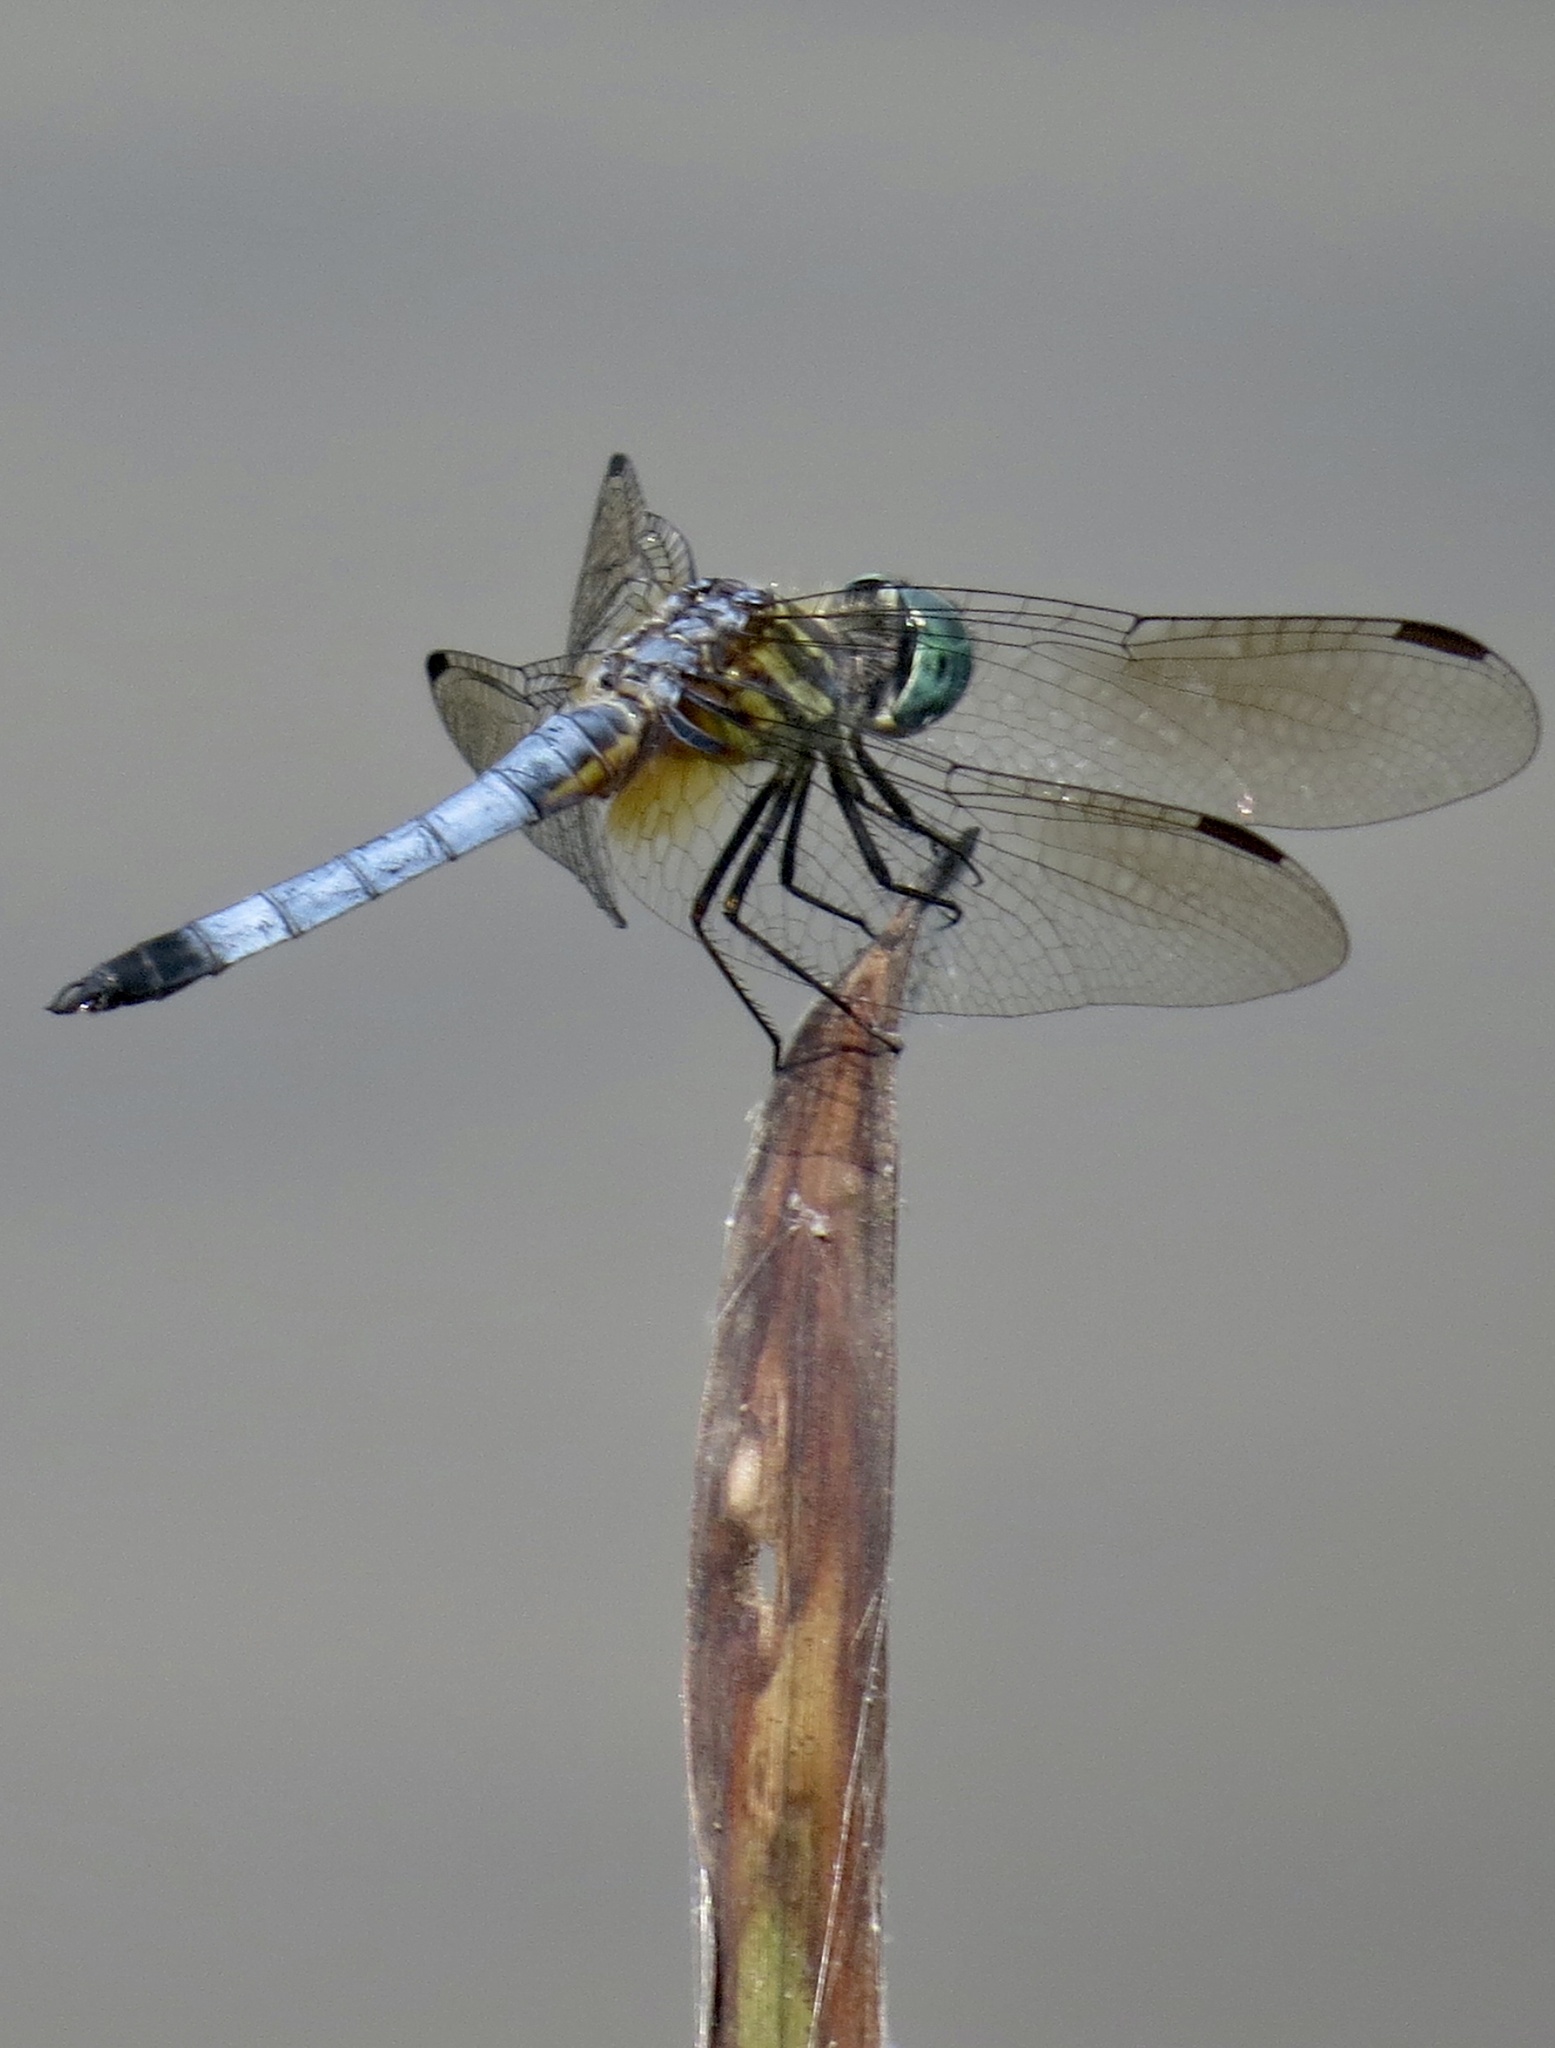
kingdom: Animalia
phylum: Arthropoda
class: Insecta
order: Odonata
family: Libellulidae
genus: Pachydiplax
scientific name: Pachydiplax longipennis
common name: Blue dasher
